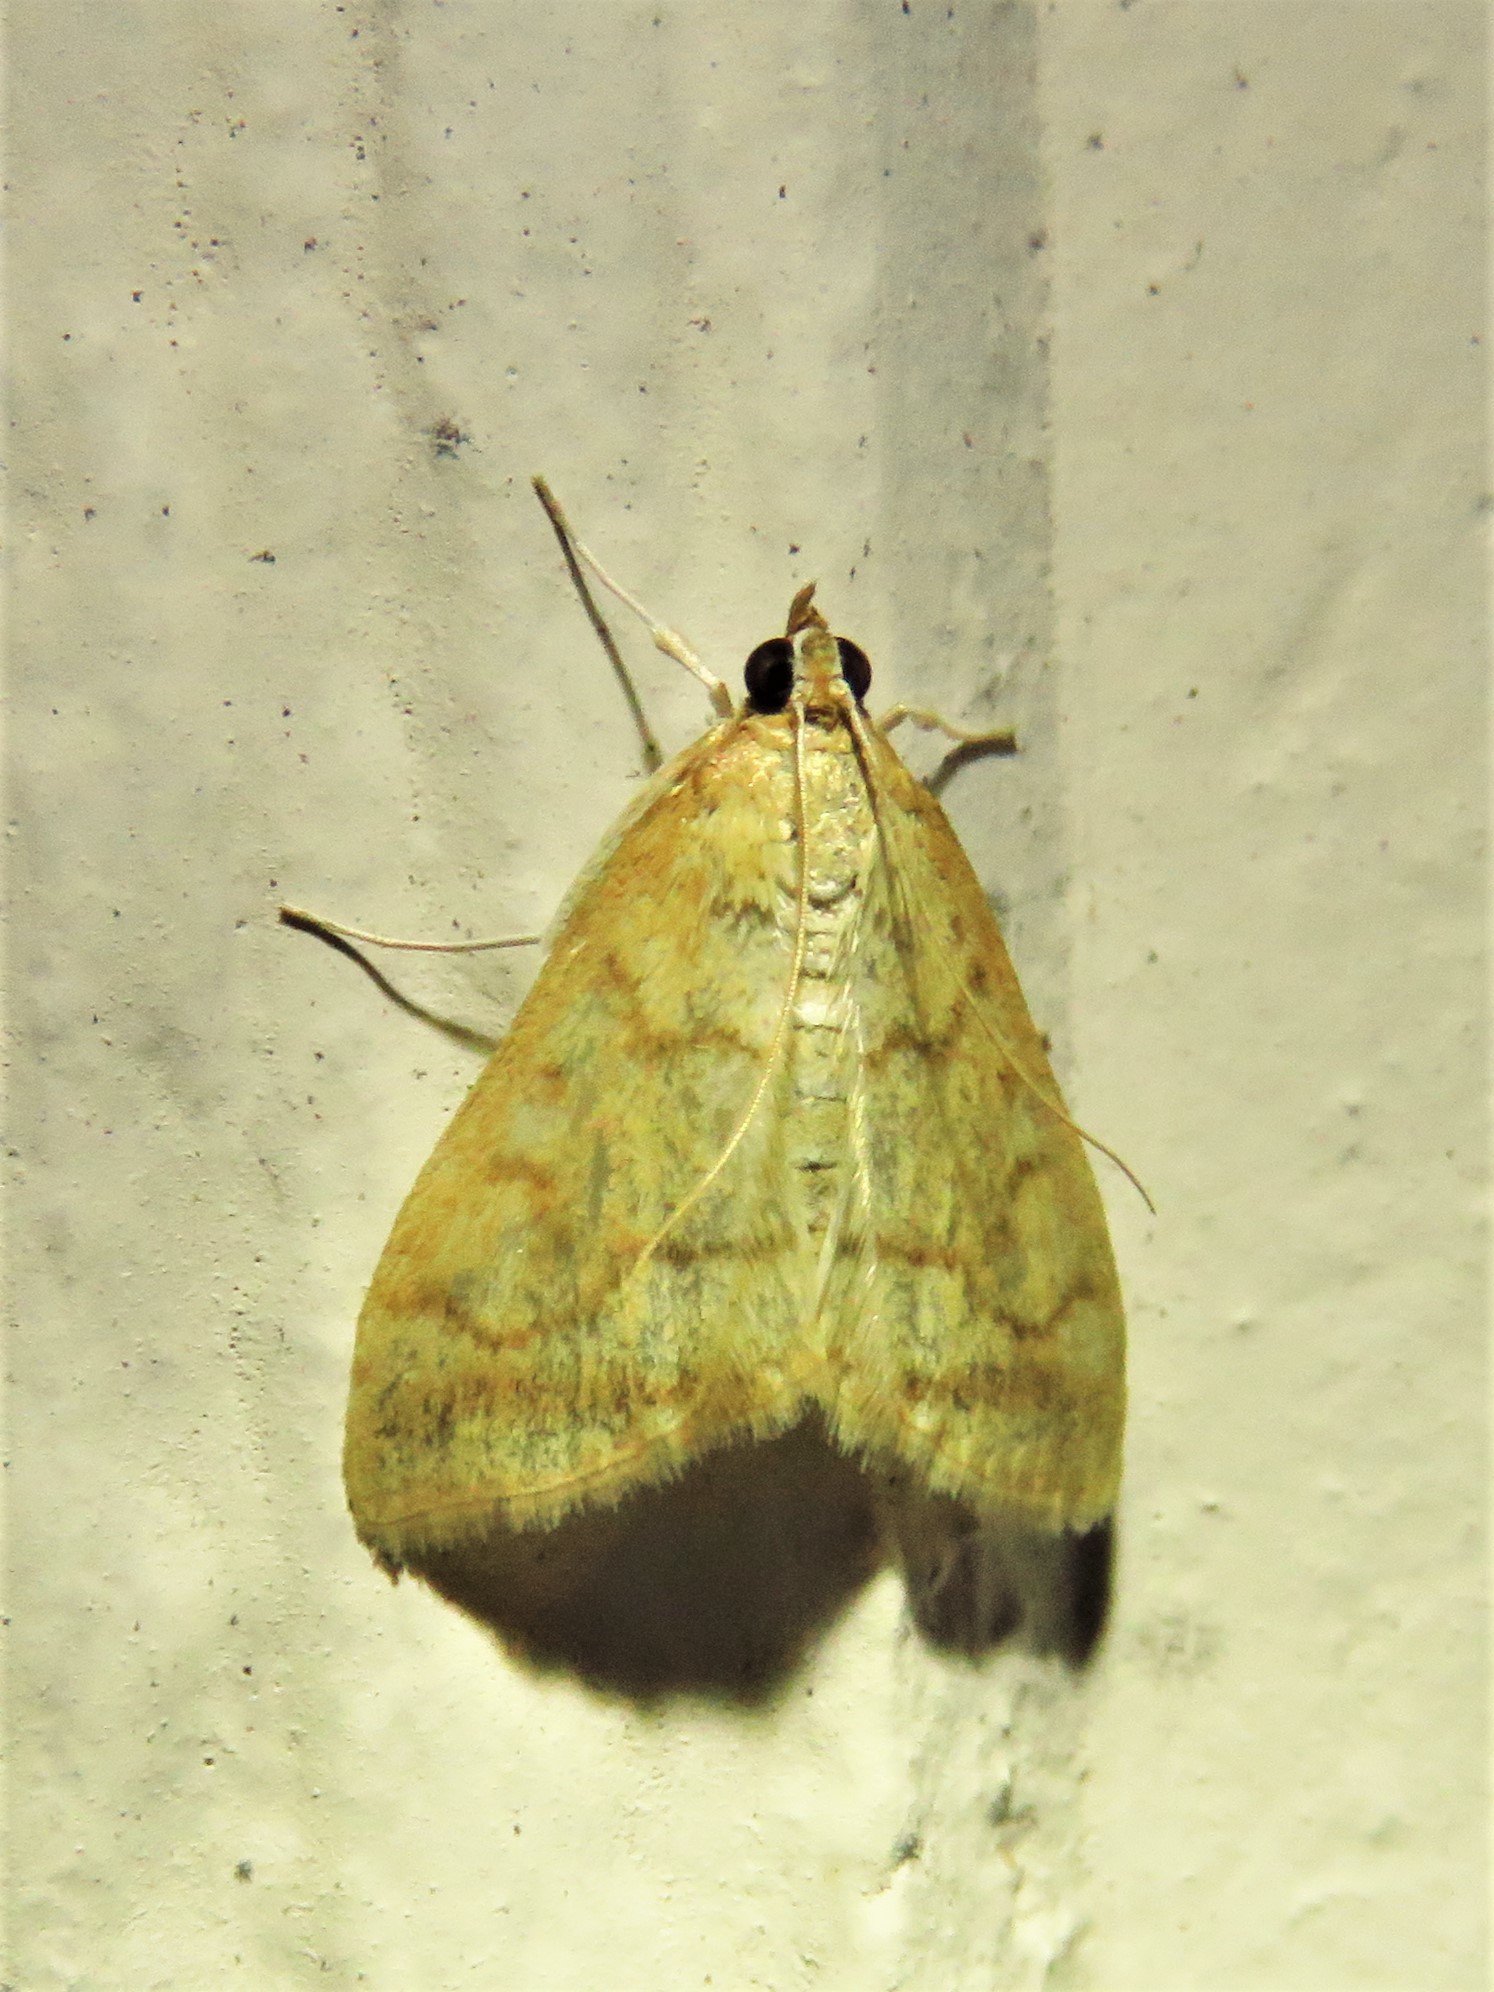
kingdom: Animalia
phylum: Arthropoda
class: Insecta
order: Lepidoptera
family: Crambidae
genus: Hahncappsia
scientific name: Hahncappsia mancalis
